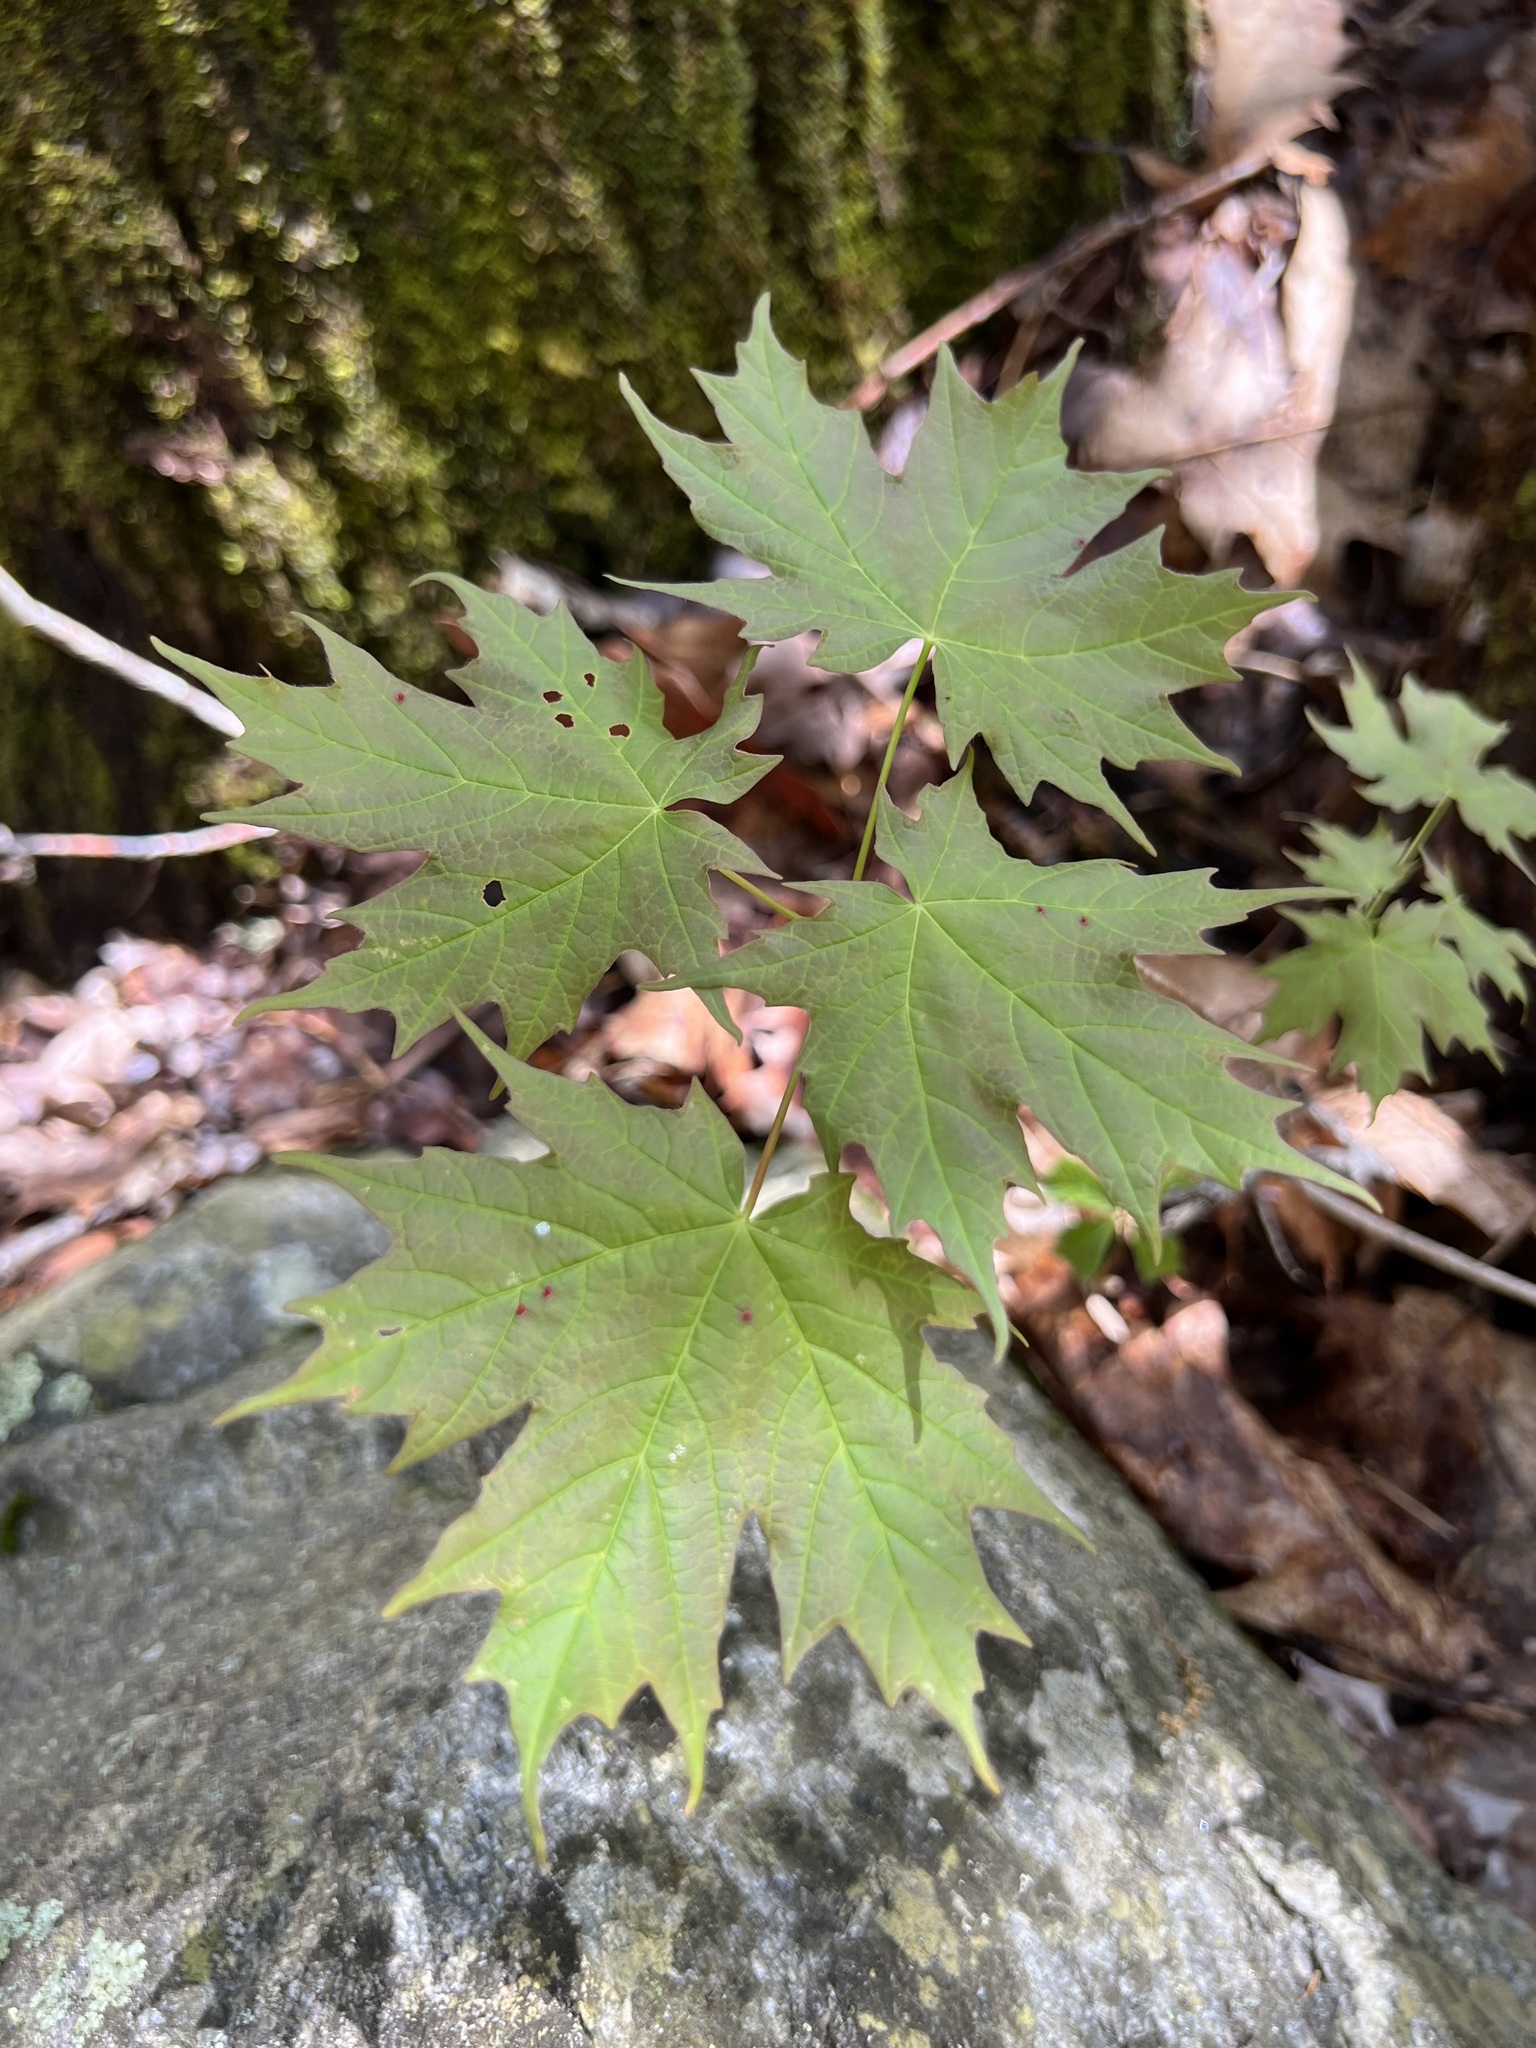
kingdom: Plantae
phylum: Tracheophyta
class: Magnoliopsida
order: Sapindales
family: Sapindaceae
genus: Acer
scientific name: Acer saccharum
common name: Sugar maple
